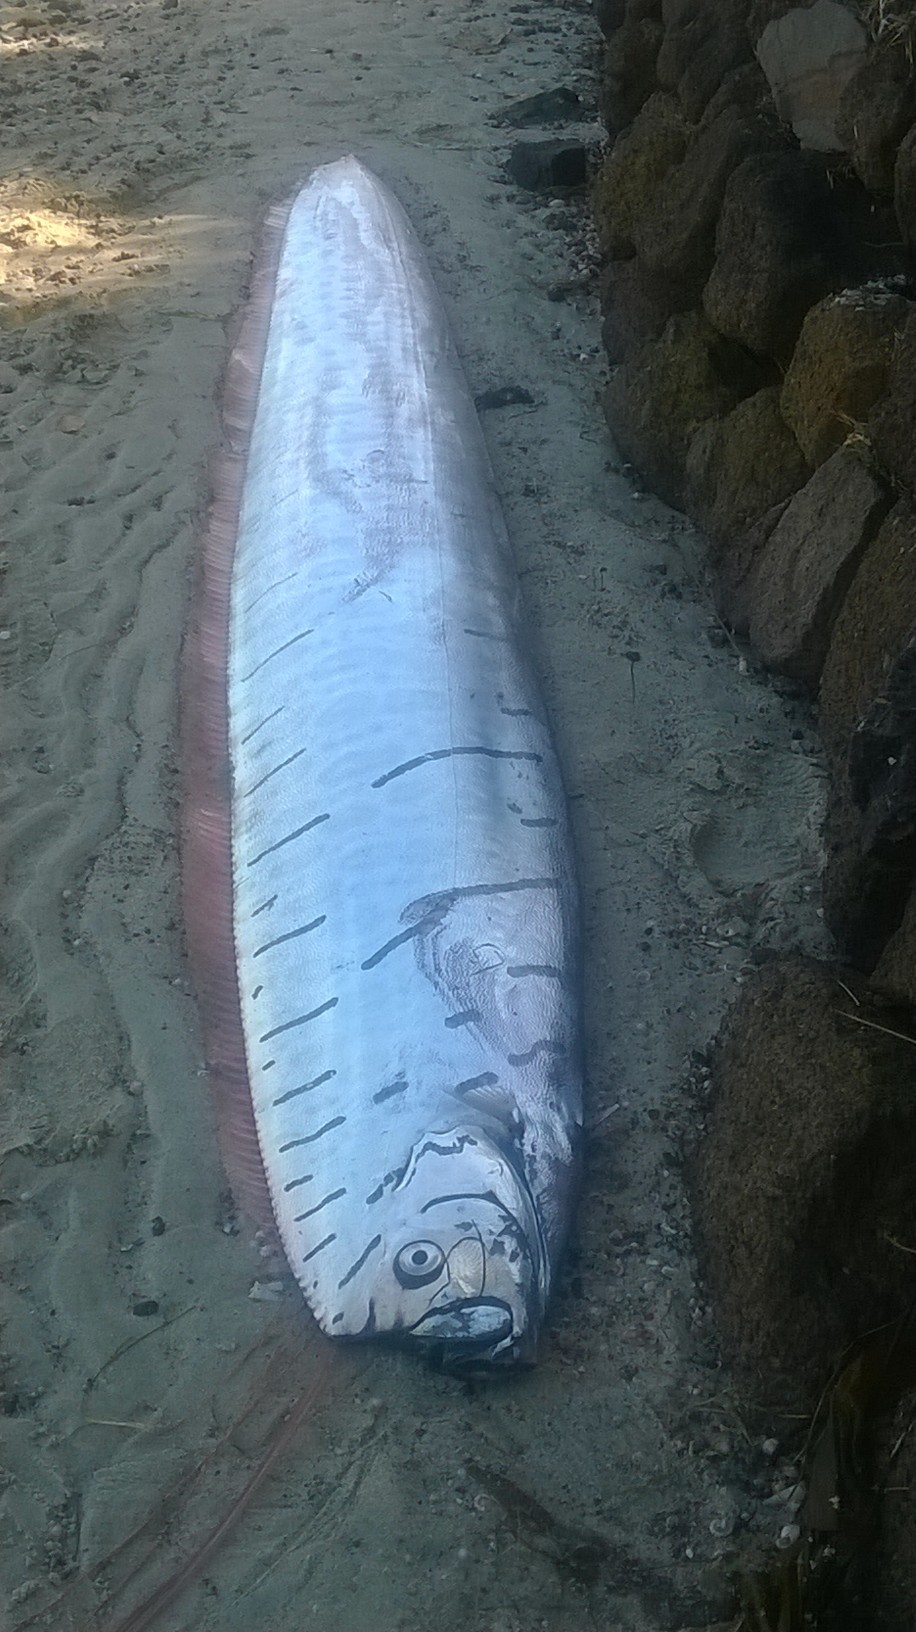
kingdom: Animalia
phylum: Chordata
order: Lampriformes
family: Regalecidae
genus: Regalecus
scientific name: Regalecus glesne
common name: Oarfish
